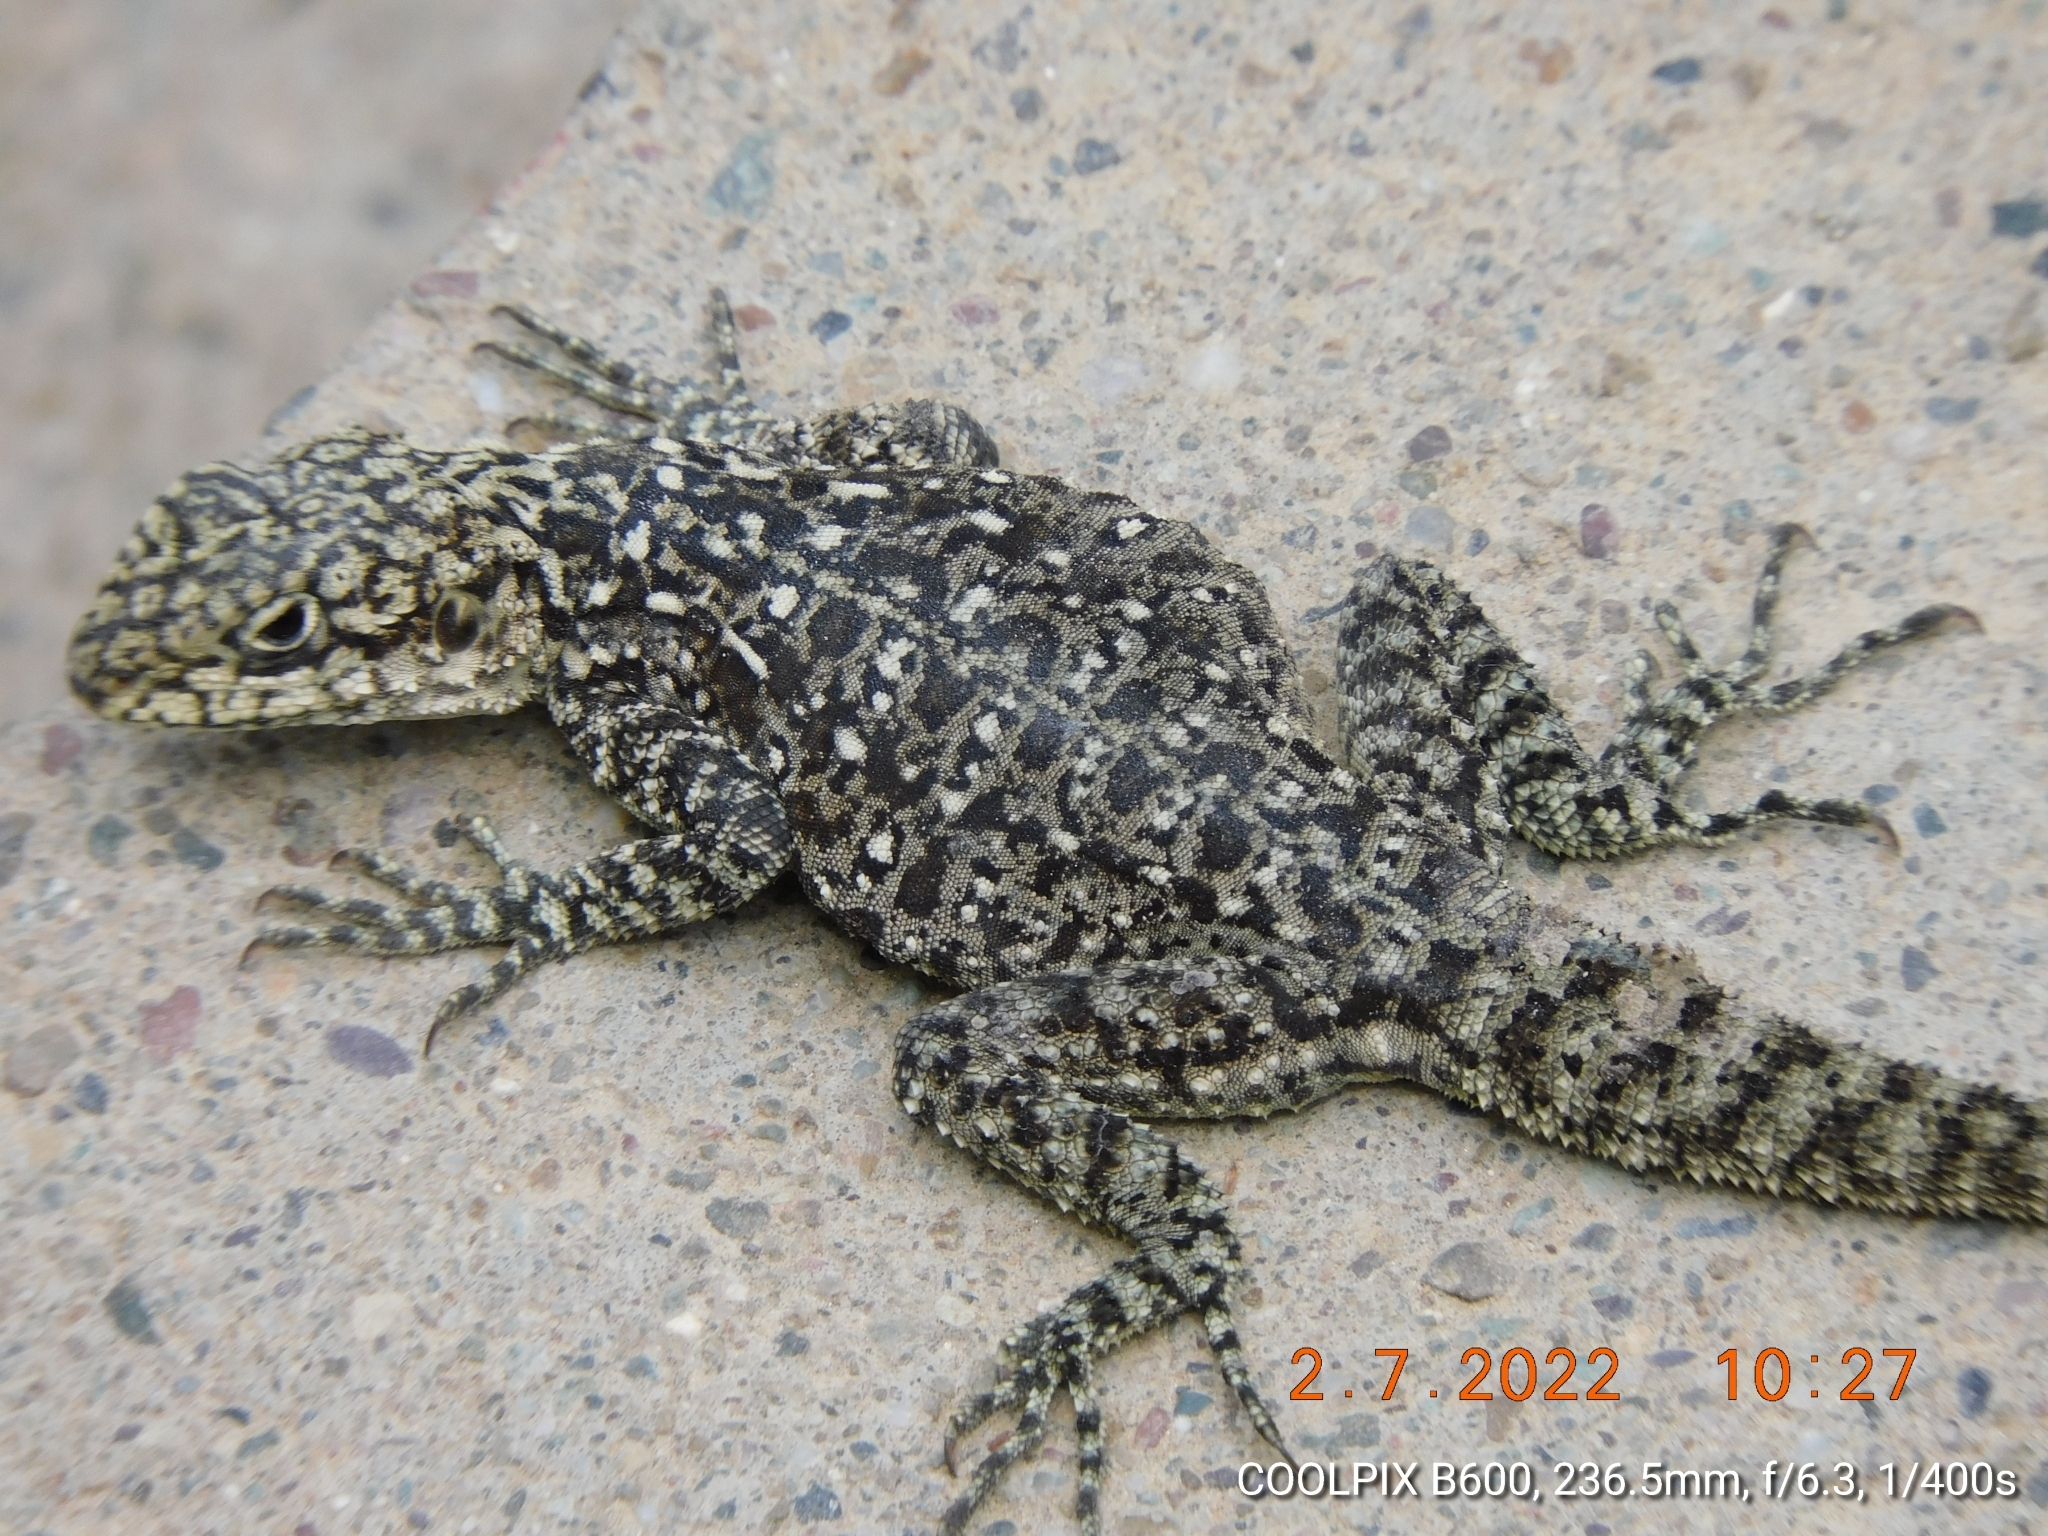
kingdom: Animalia
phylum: Chordata
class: Squamata
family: Agamidae
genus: Laudakia
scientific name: Laudakia tuberculata
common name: Kashmir rock agama
